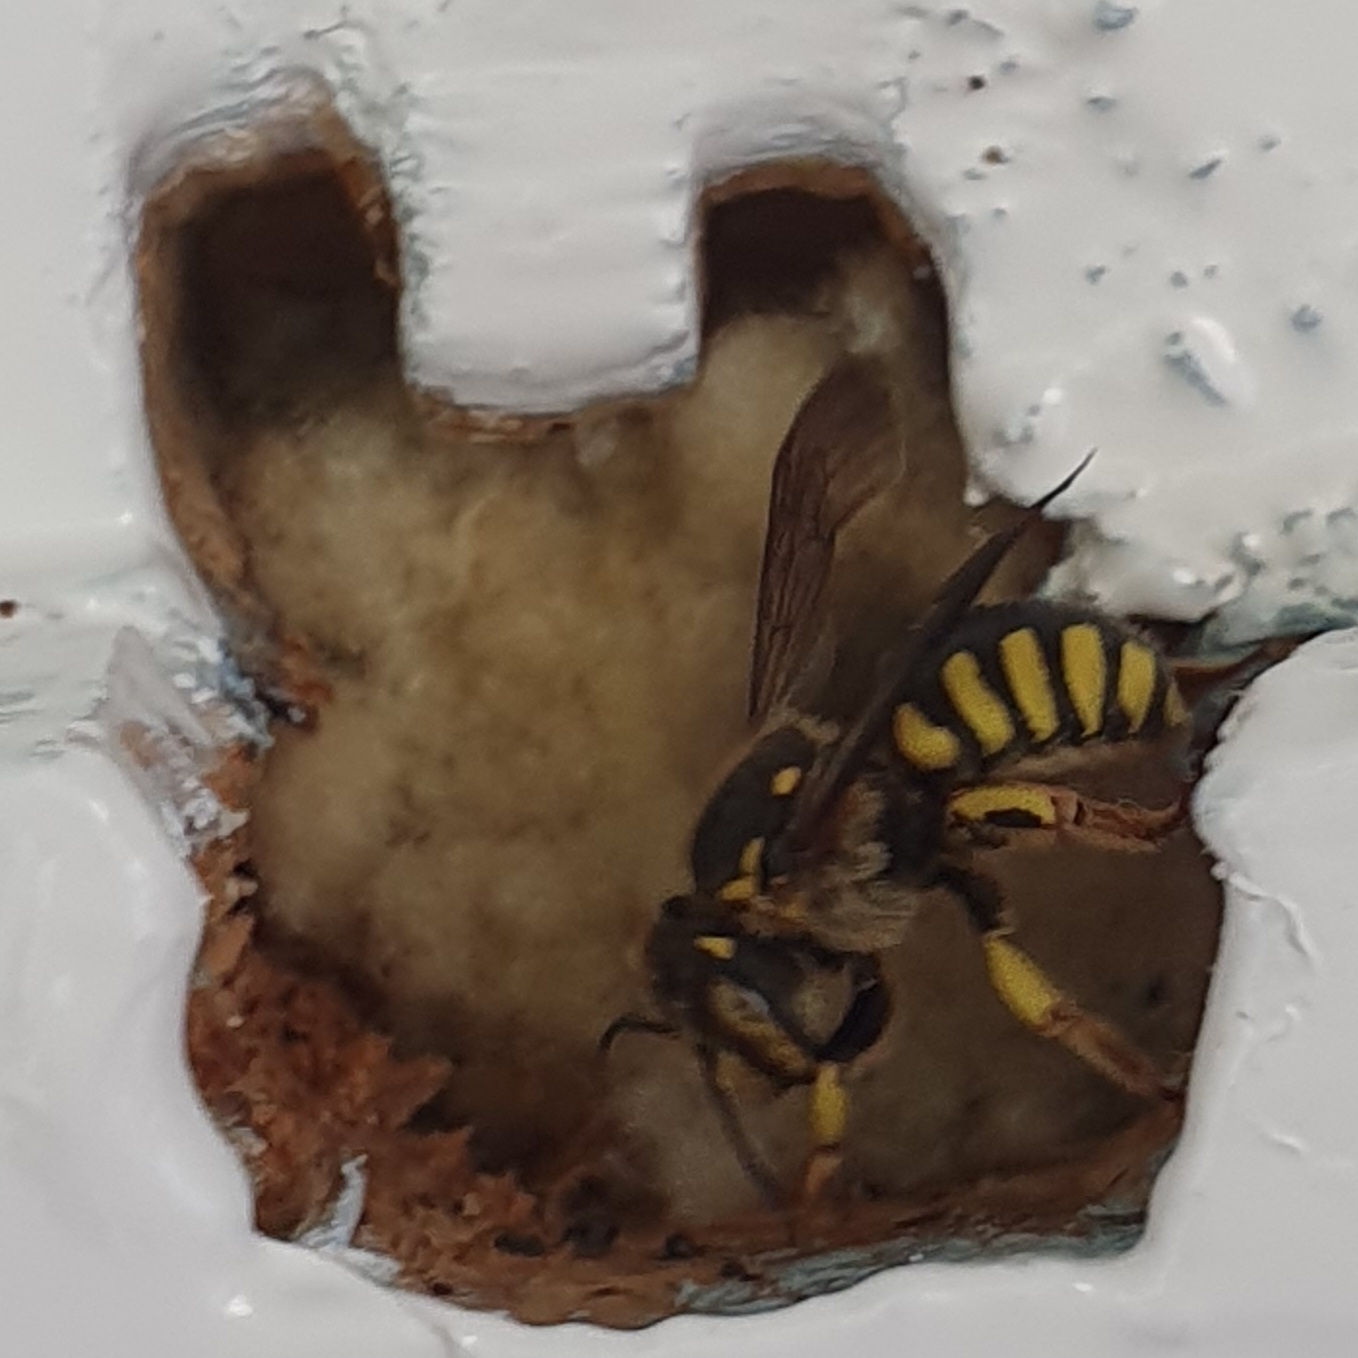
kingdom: Animalia
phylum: Arthropoda
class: Insecta
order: Hymenoptera
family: Megachilidae
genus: Anthidium
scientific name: Anthidium florentinum
